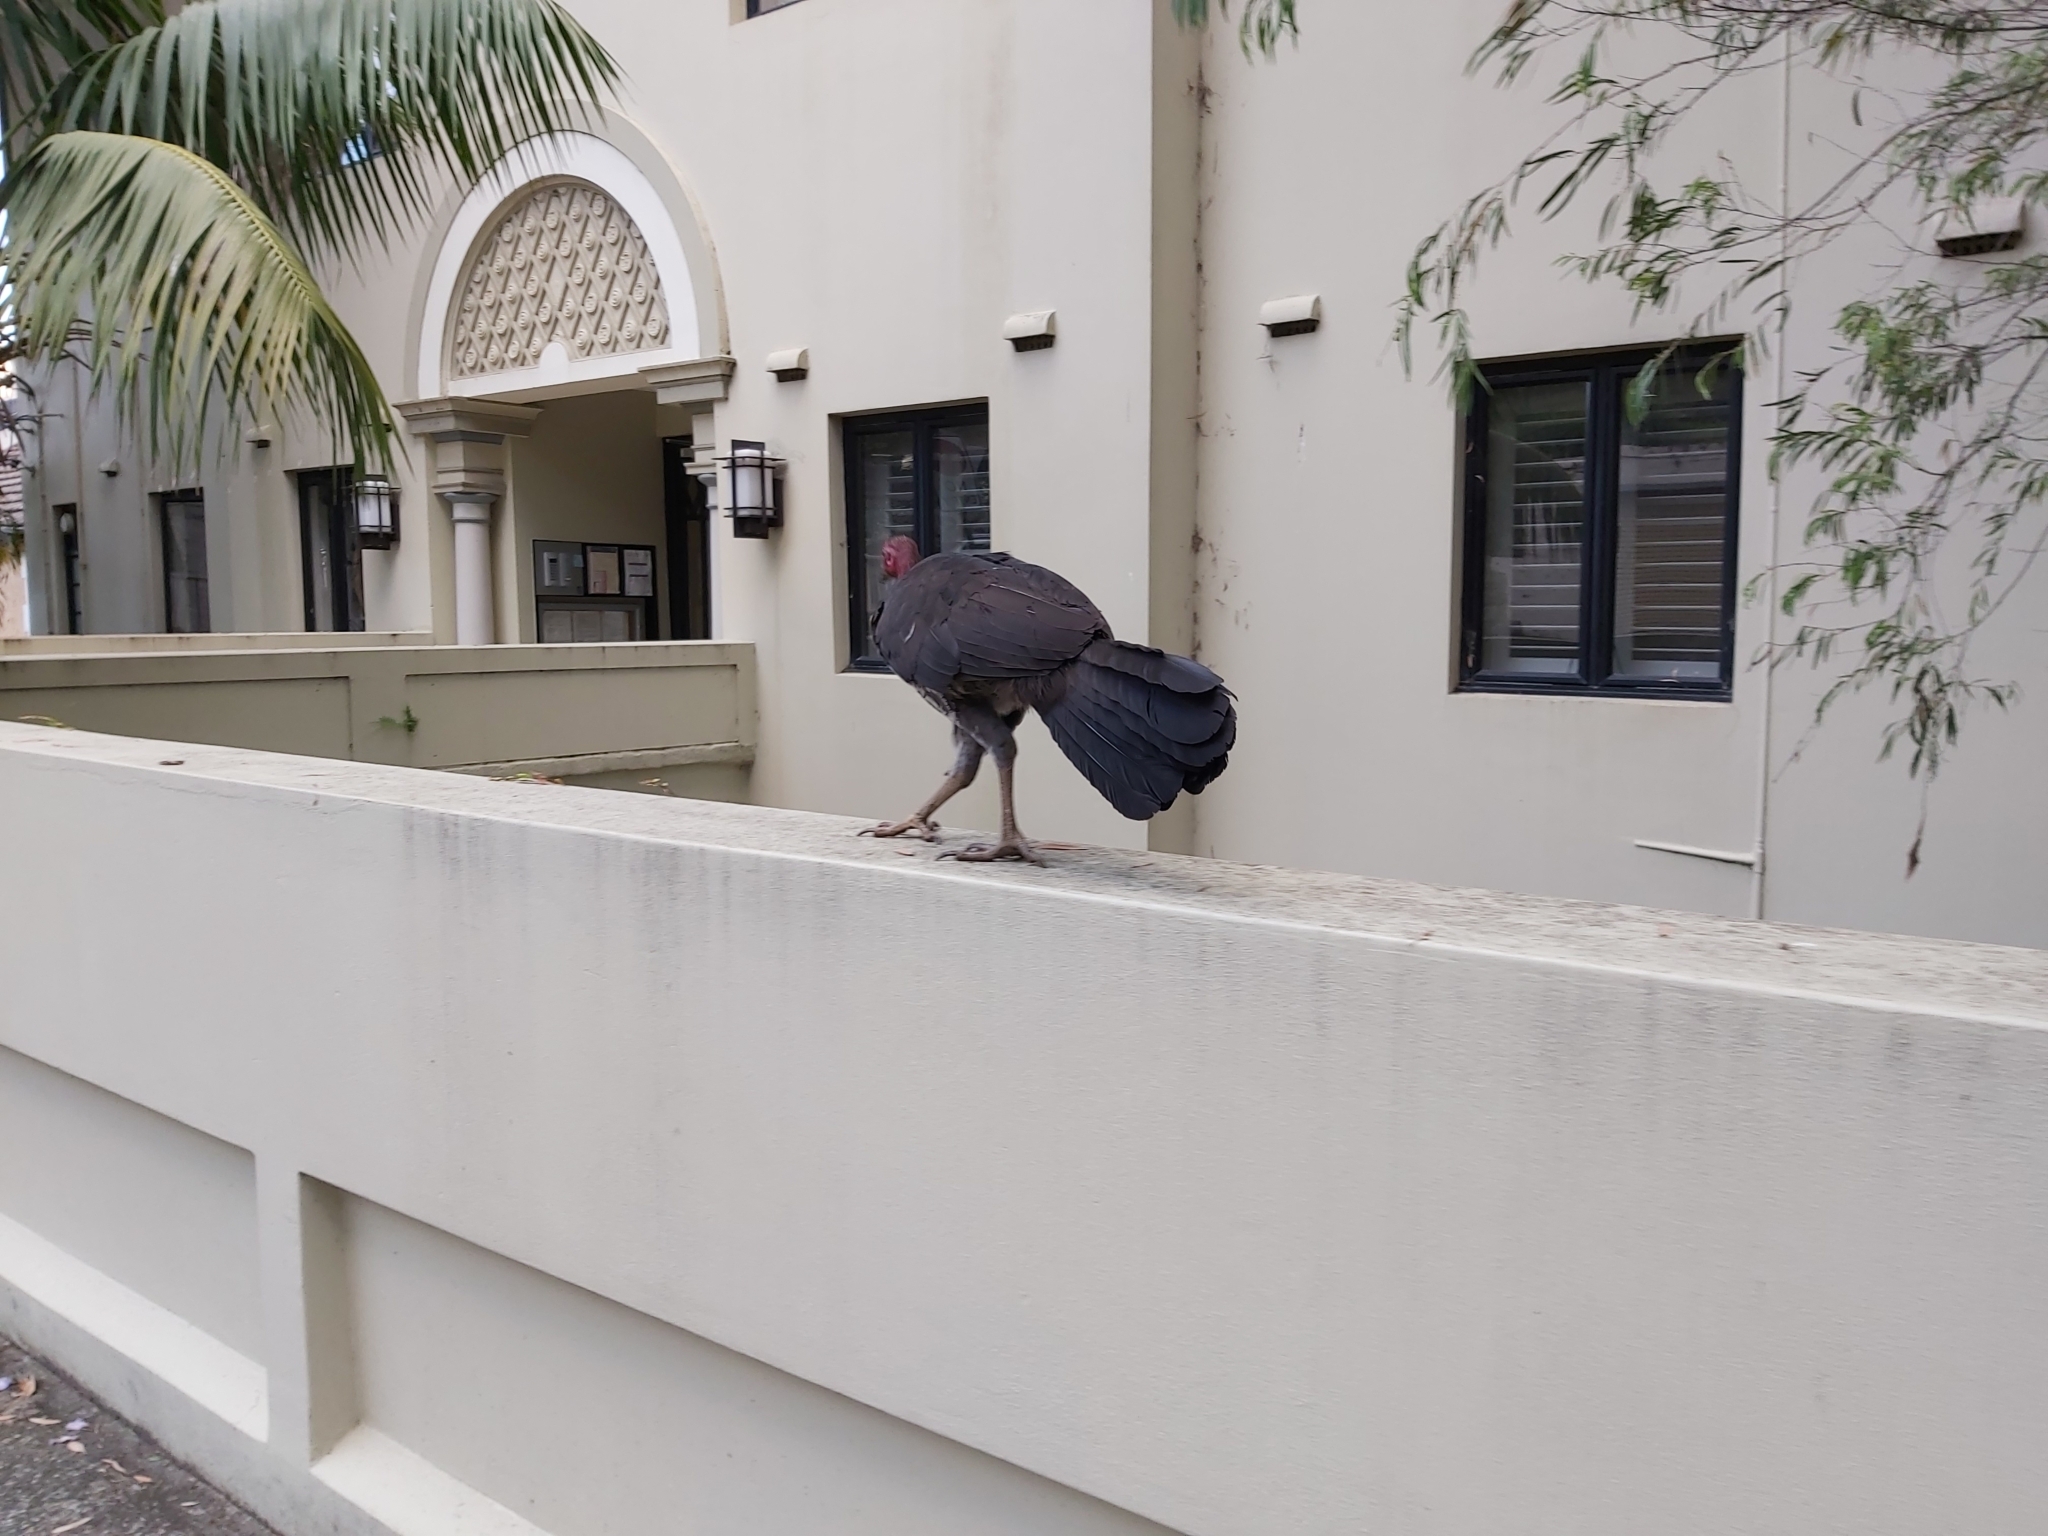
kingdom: Animalia
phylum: Chordata
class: Aves
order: Galliformes
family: Megapodiidae
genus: Alectura
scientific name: Alectura lathami
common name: Australian brushturkey
